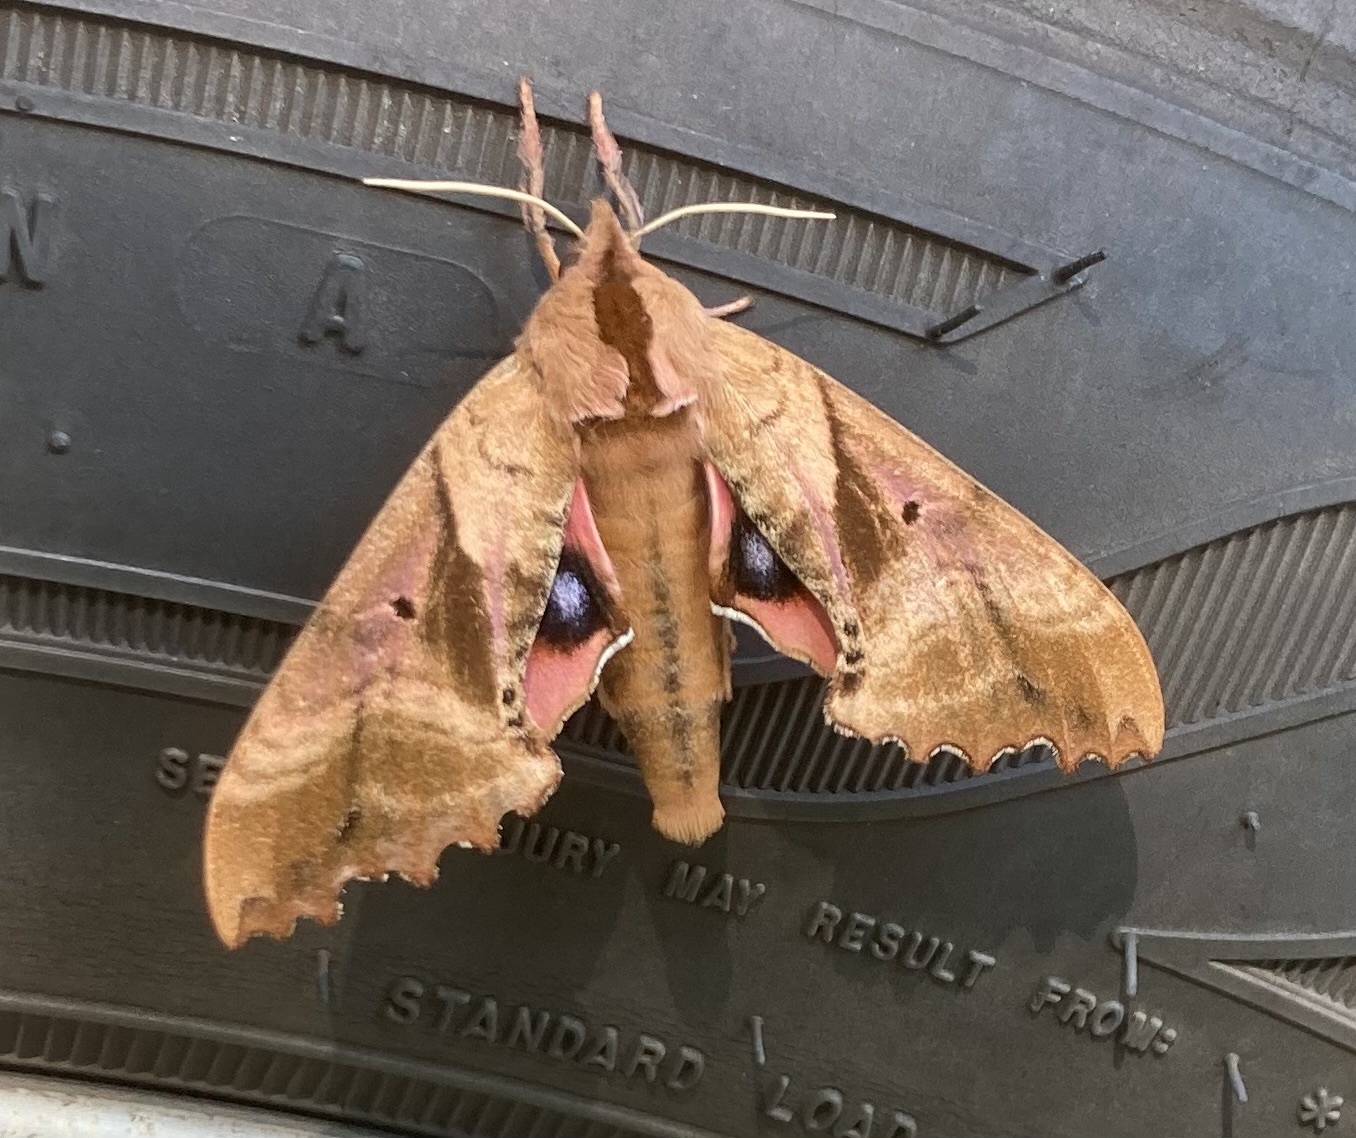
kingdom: Animalia
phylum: Arthropoda
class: Insecta
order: Lepidoptera
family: Sphingidae
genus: Paonias
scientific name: Paonias excaecata
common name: Blind-eyed sphinx
